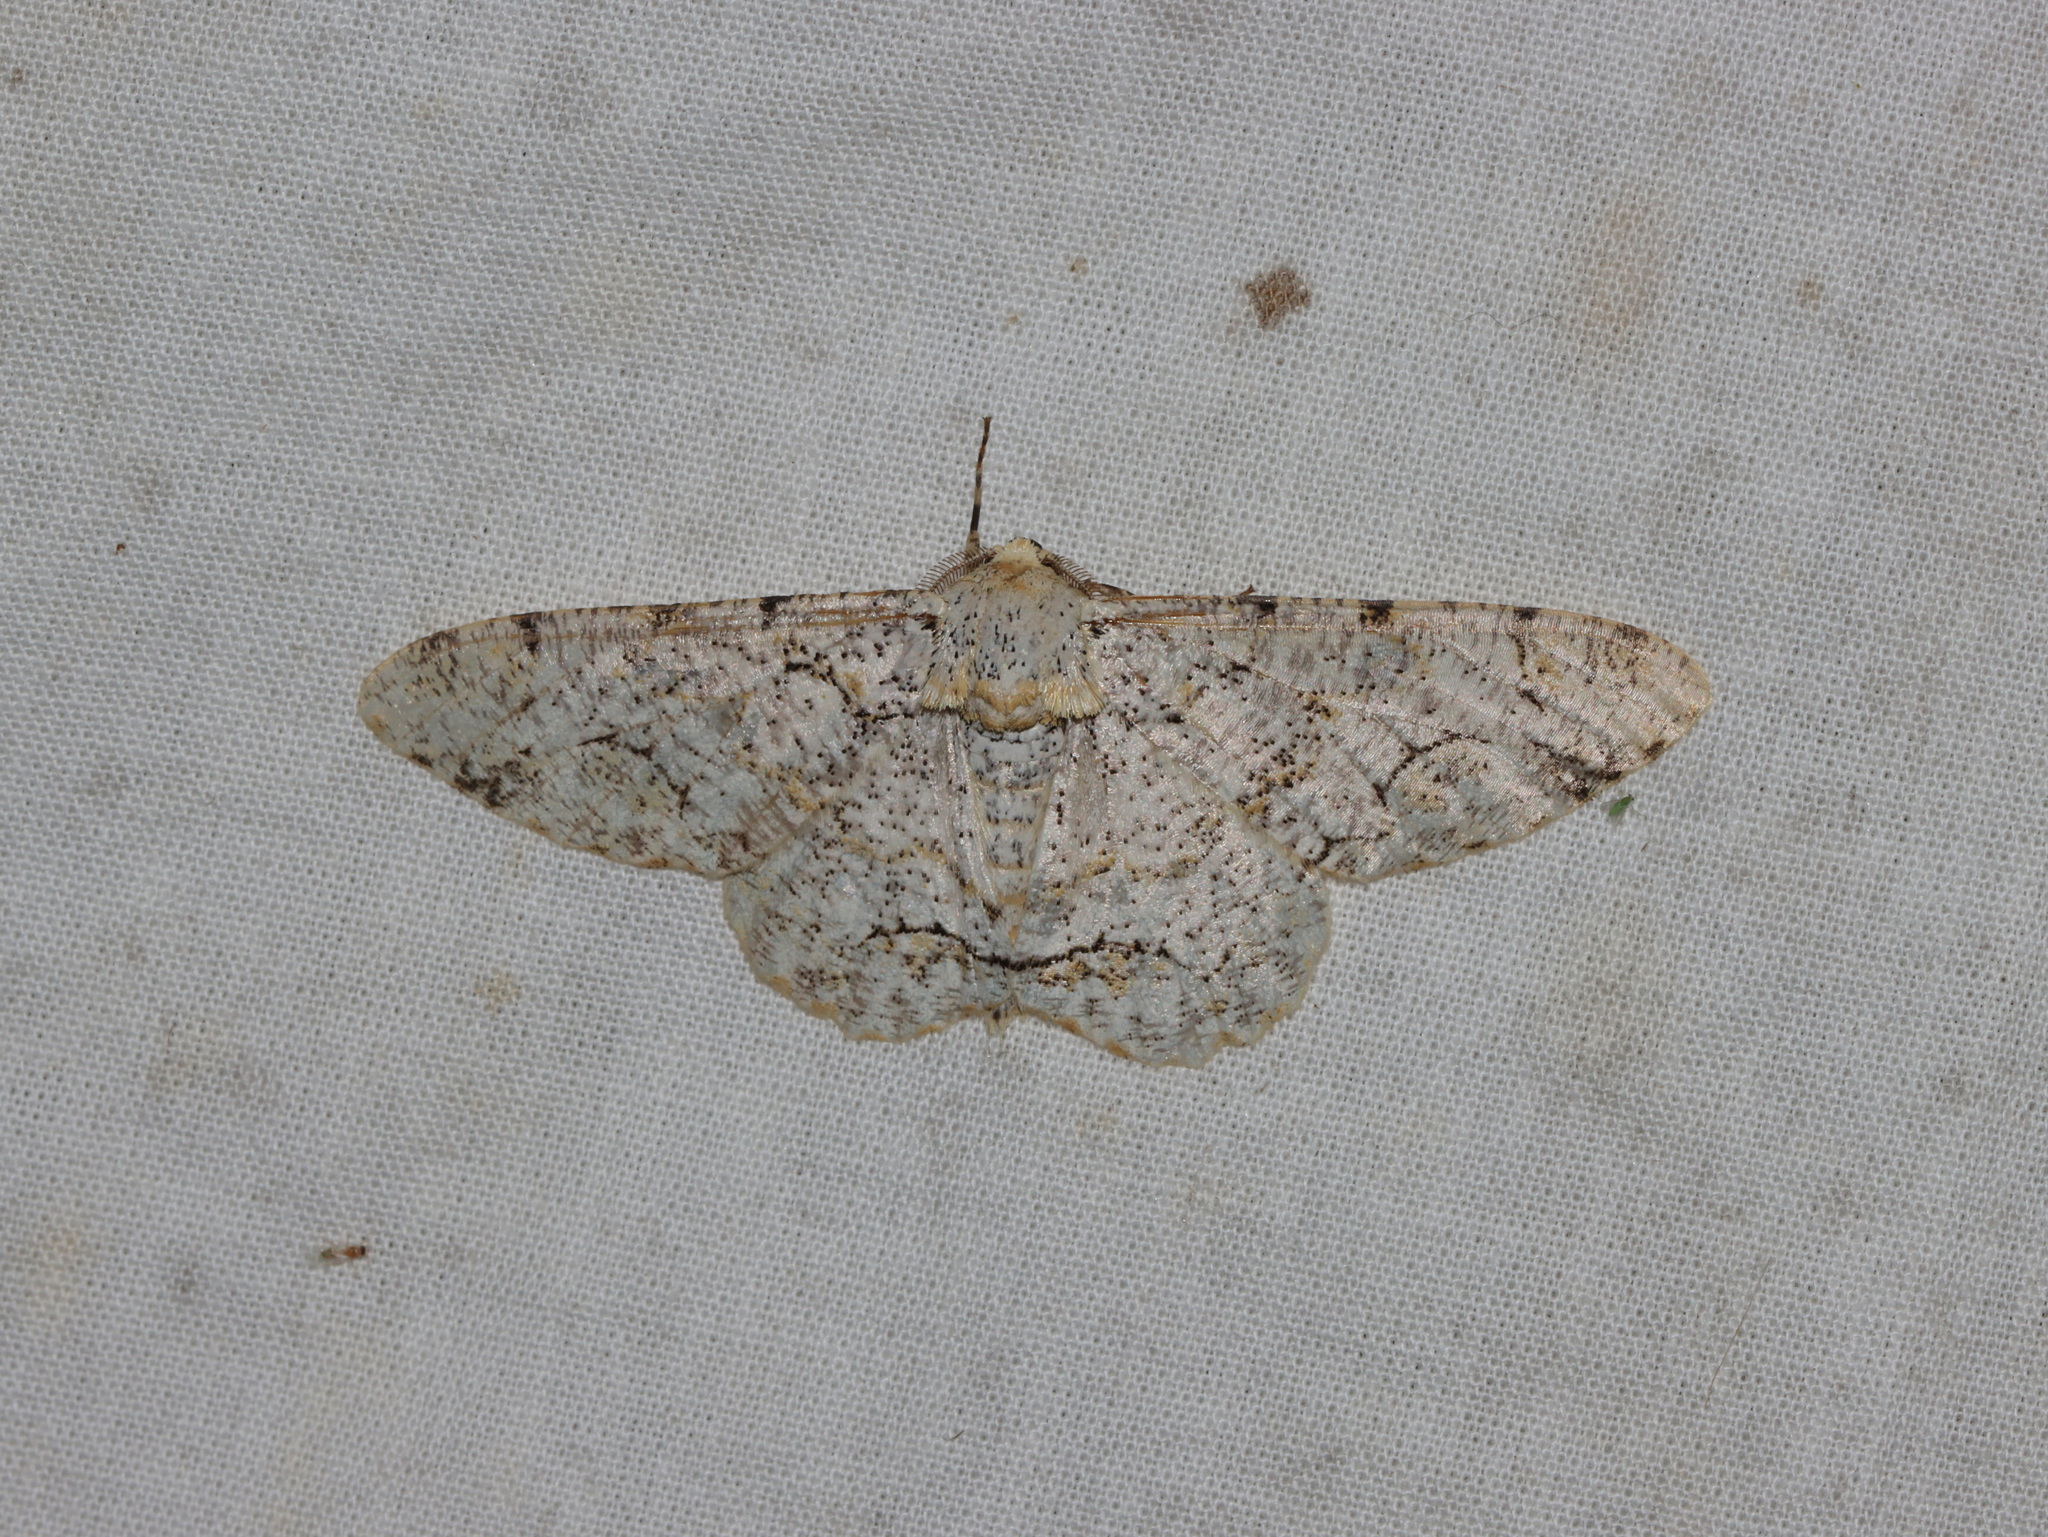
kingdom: Animalia
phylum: Arthropoda
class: Insecta
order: Lepidoptera
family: Geometridae
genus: Biston
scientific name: Biston suppressaria
